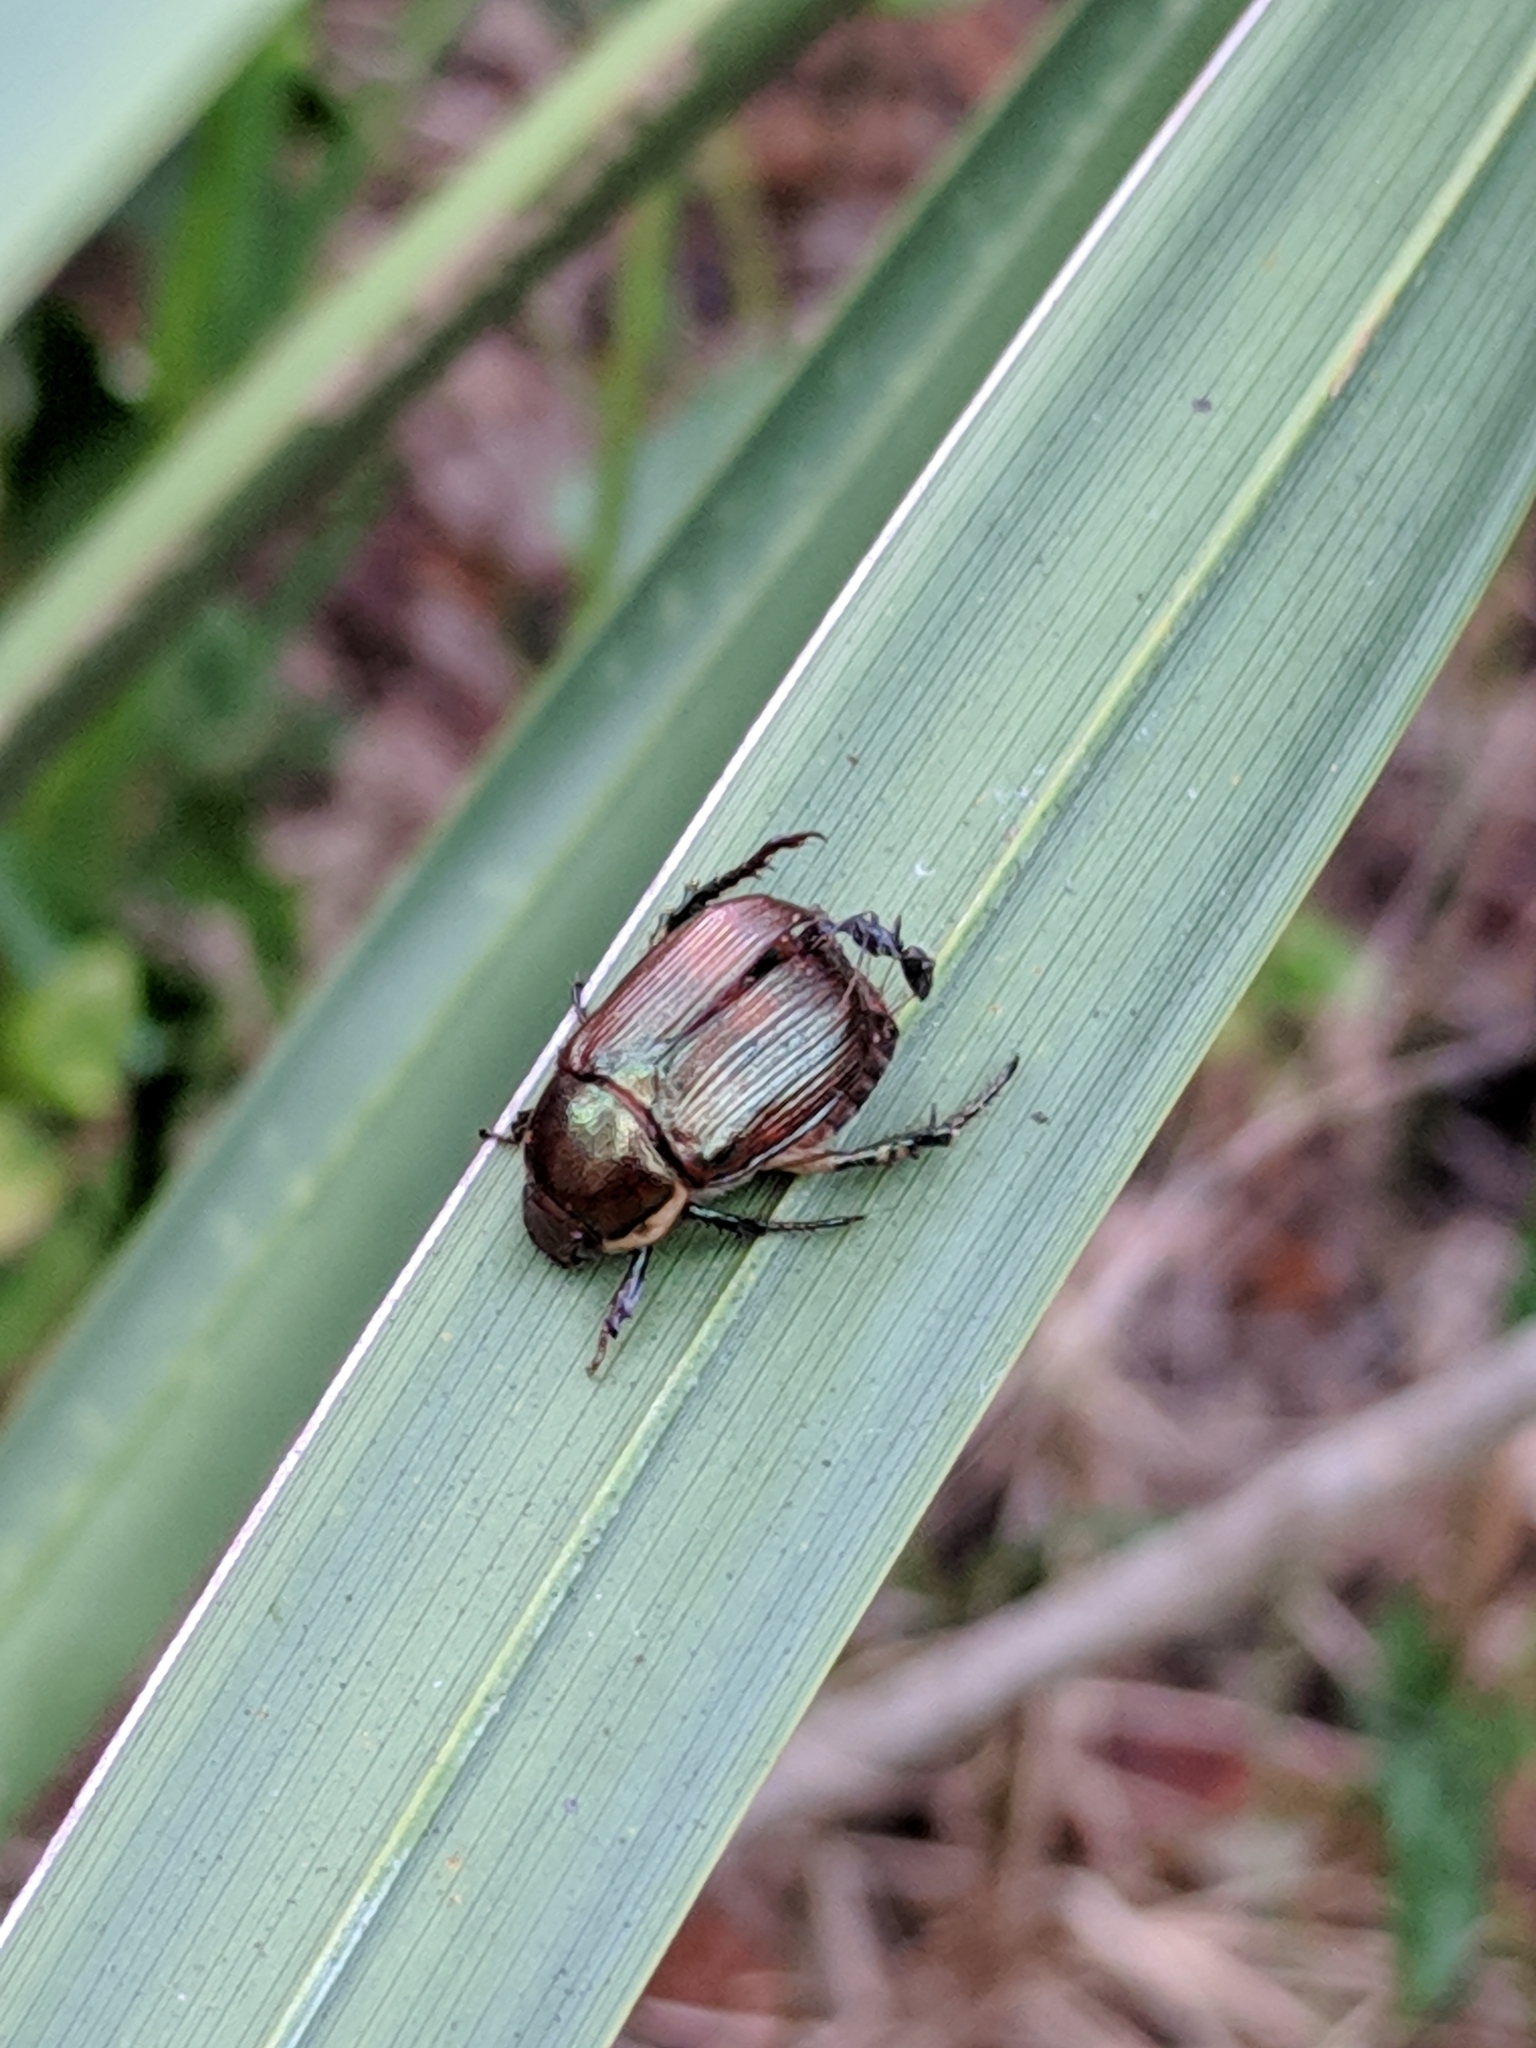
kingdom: Animalia
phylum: Arthropoda
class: Insecta
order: Coleoptera
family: Scarabaeidae
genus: Callistethus
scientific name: Callistethus marginatus
